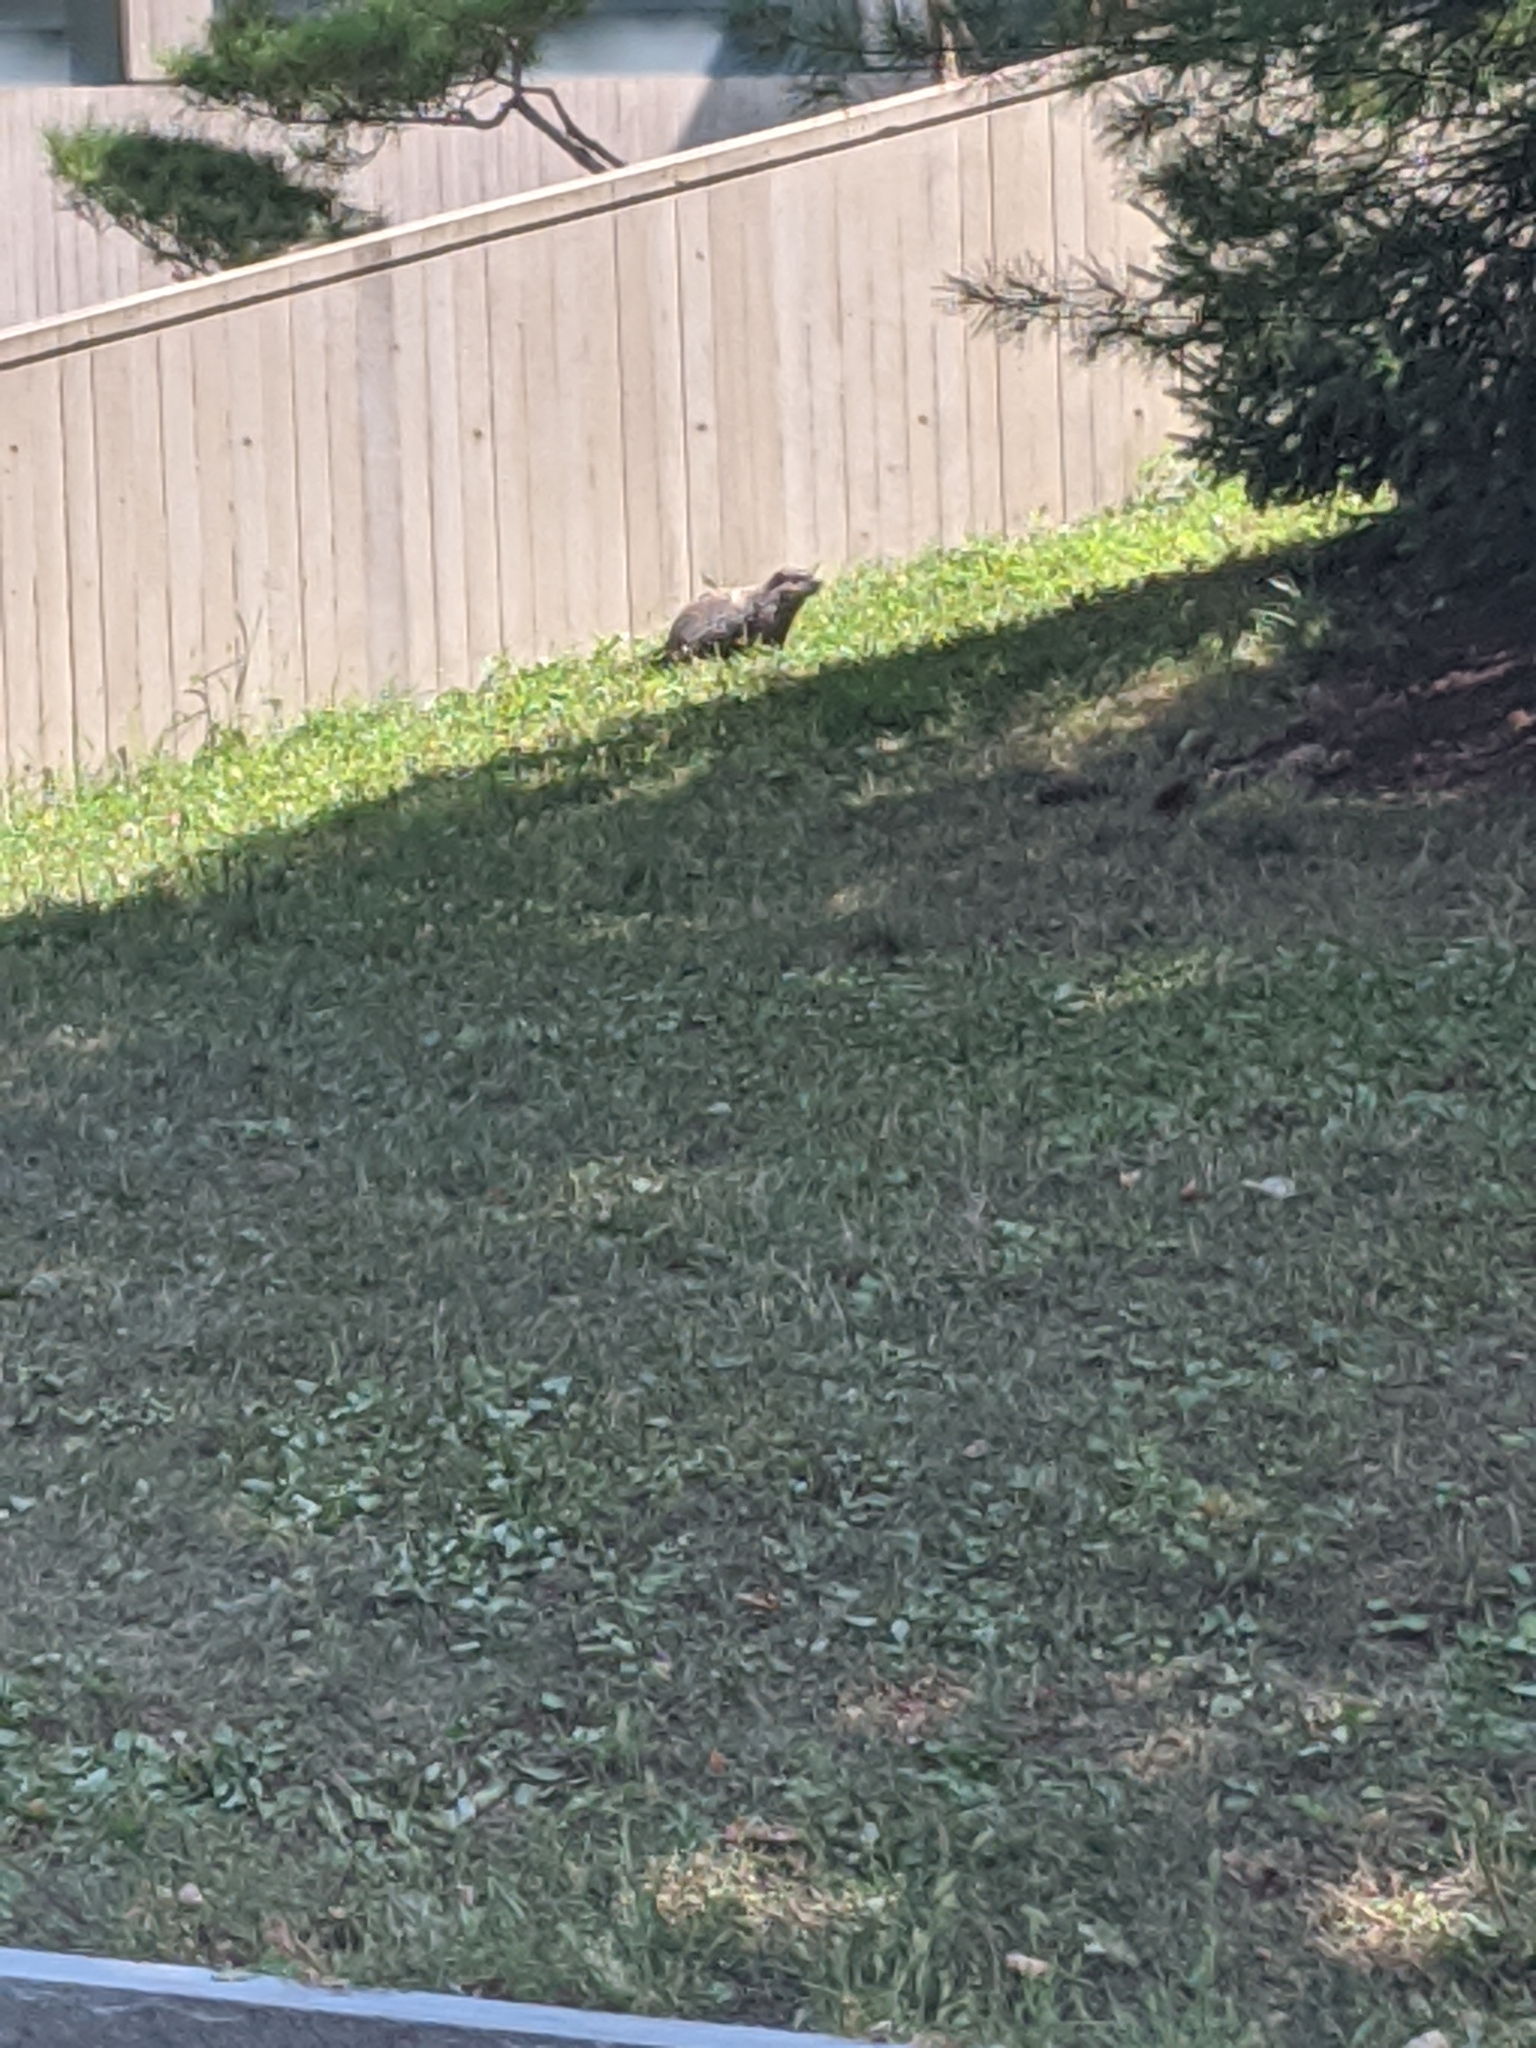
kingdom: Animalia
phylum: Chordata
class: Mammalia
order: Rodentia
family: Sciuridae
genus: Marmota
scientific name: Marmota monax
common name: Groundhog
